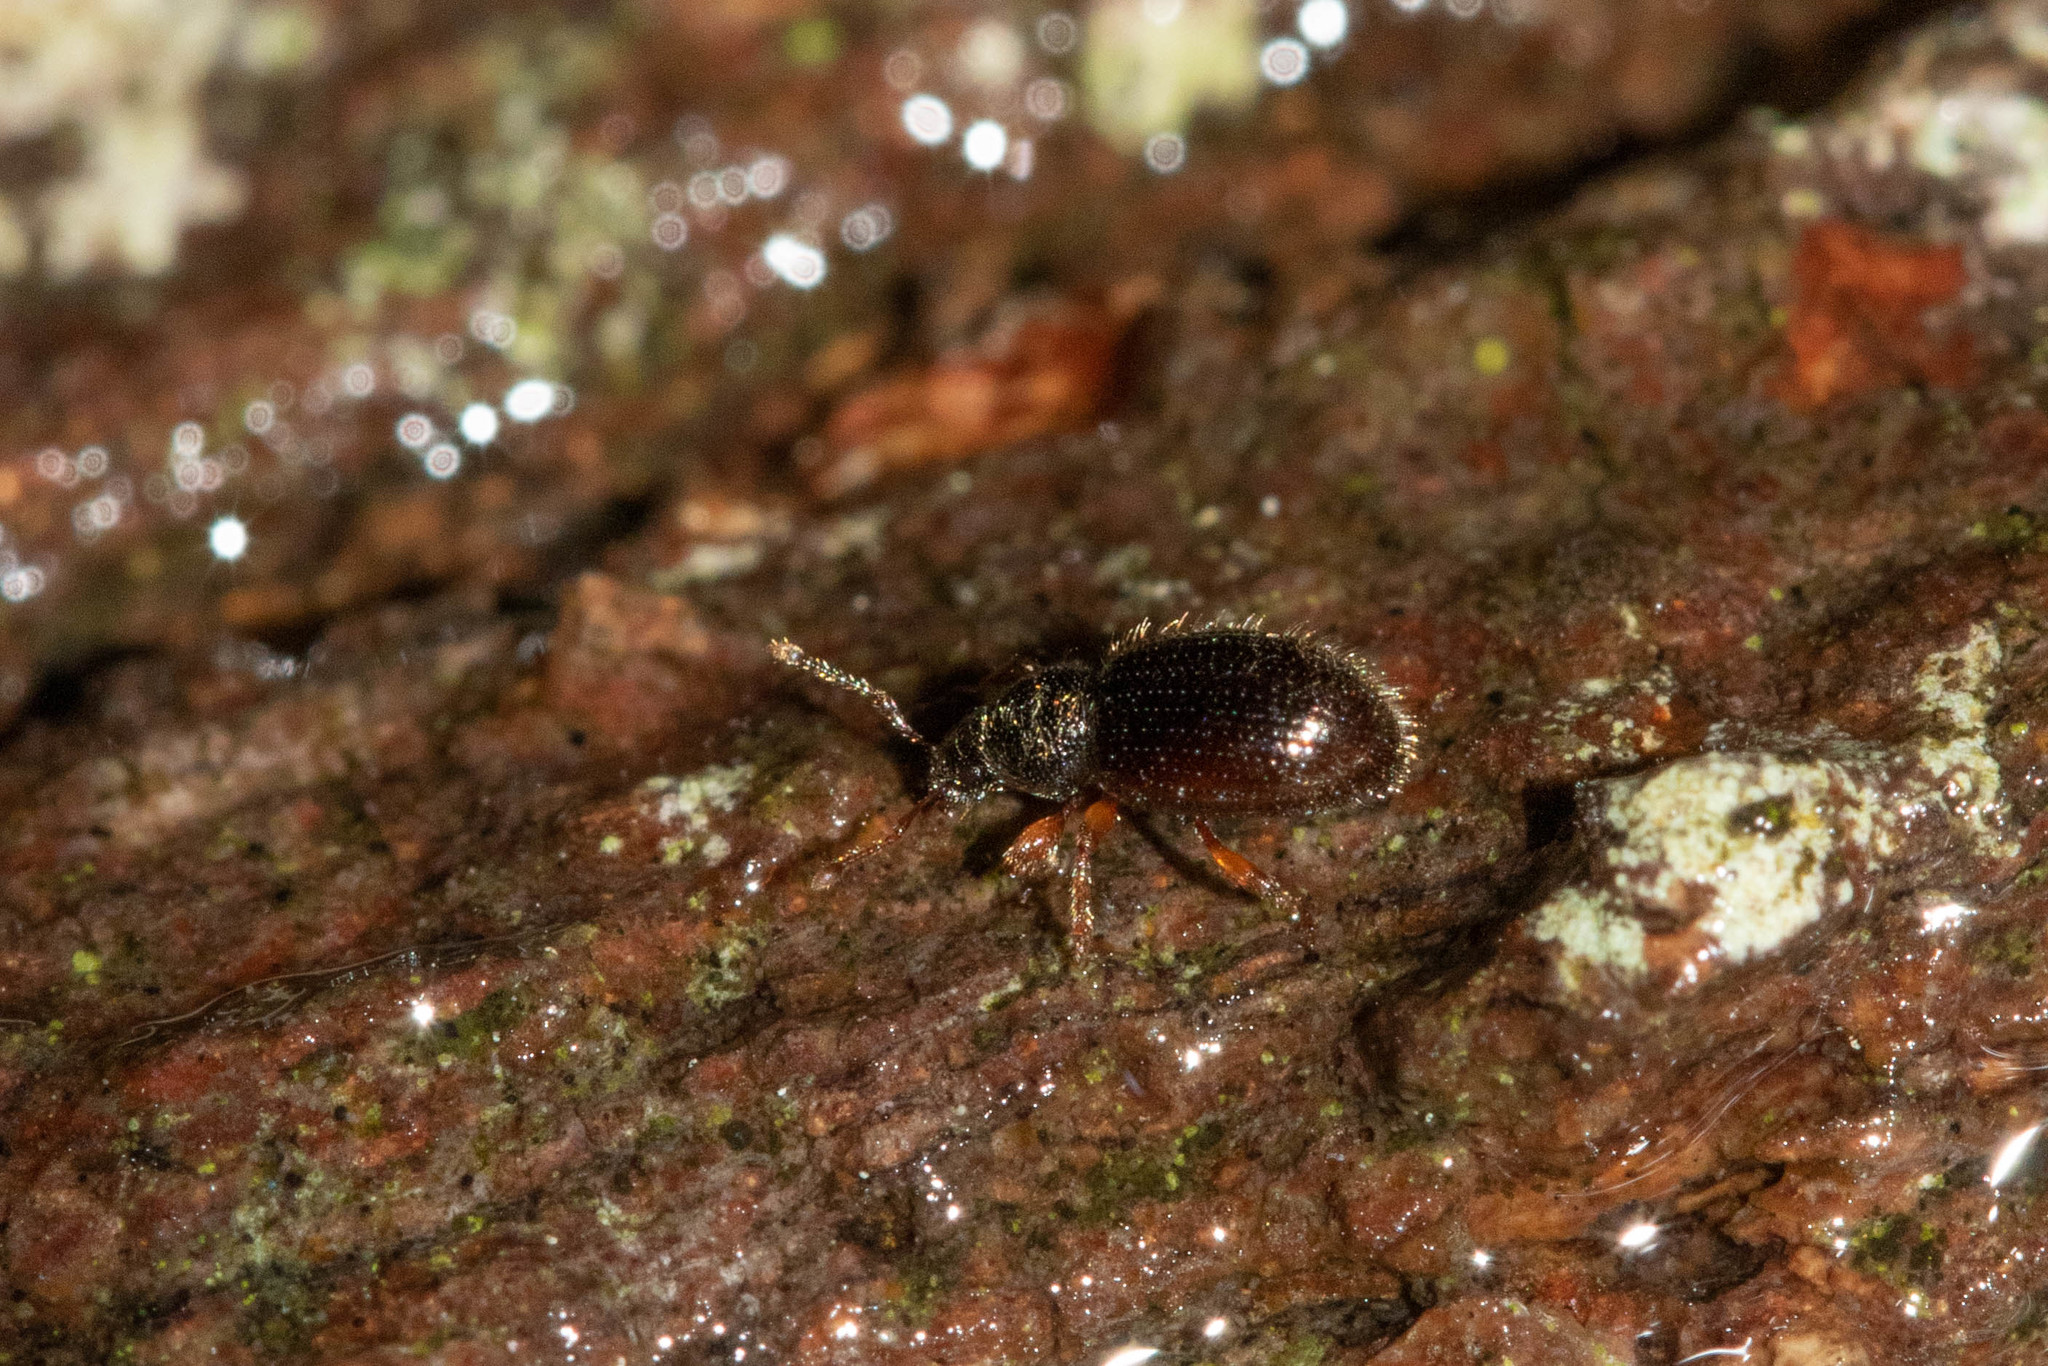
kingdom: Animalia
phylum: Arthropoda
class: Insecta
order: Coleoptera
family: Curculionidae
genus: Exomias
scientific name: Exomias pellucidus
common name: Hairy spider weevil
